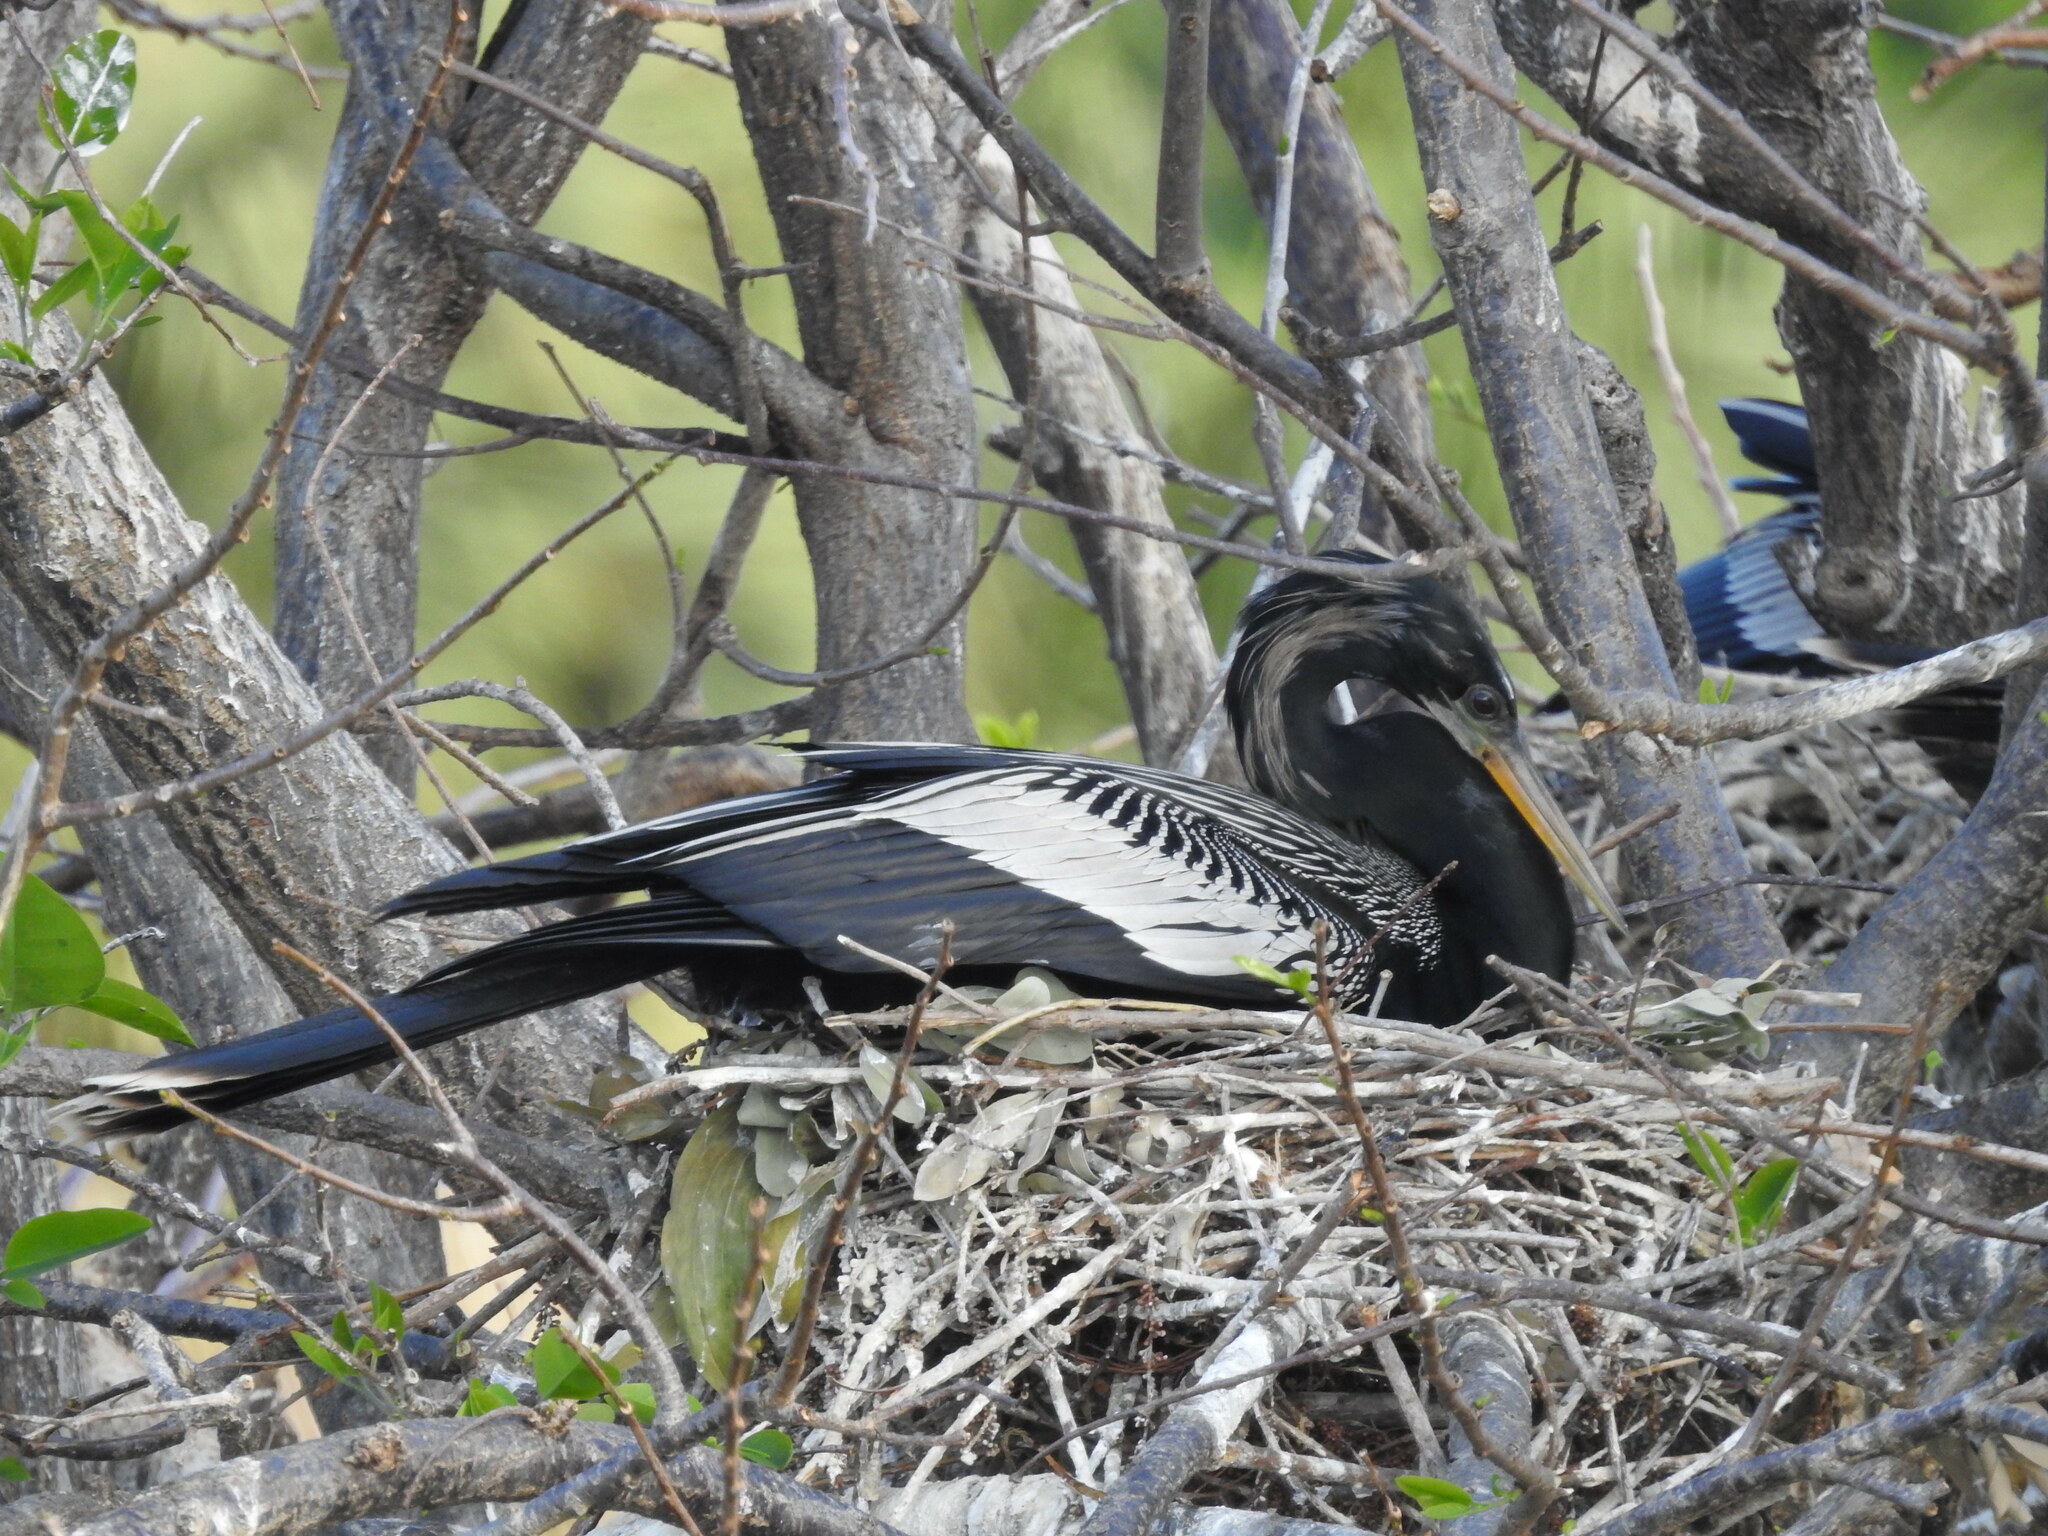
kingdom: Animalia
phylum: Chordata
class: Aves
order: Suliformes
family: Anhingidae
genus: Anhinga
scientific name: Anhinga anhinga
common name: Anhinga
